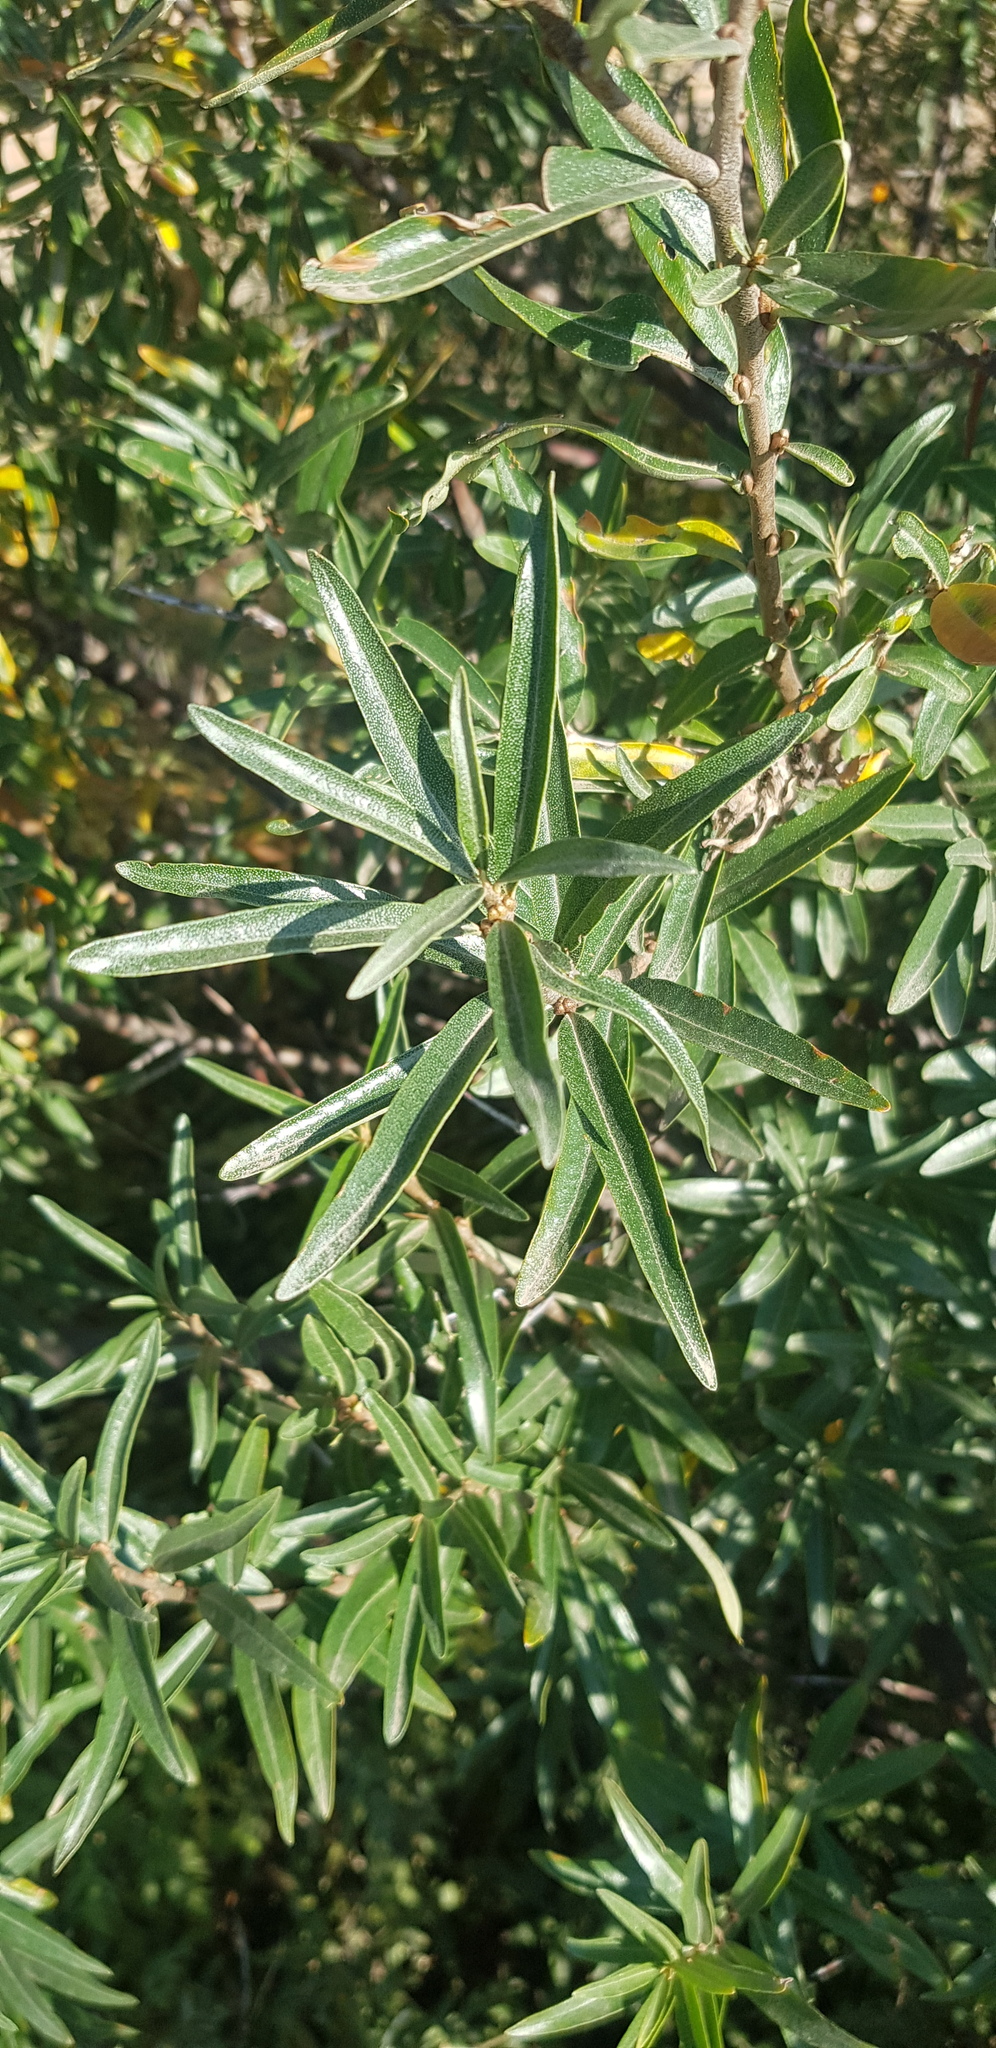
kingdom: Plantae
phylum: Tracheophyta
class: Magnoliopsida
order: Rosales
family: Elaeagnaceae
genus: Hippophae
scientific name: Hippophae rhamnoides
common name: Sea-buckthorn
